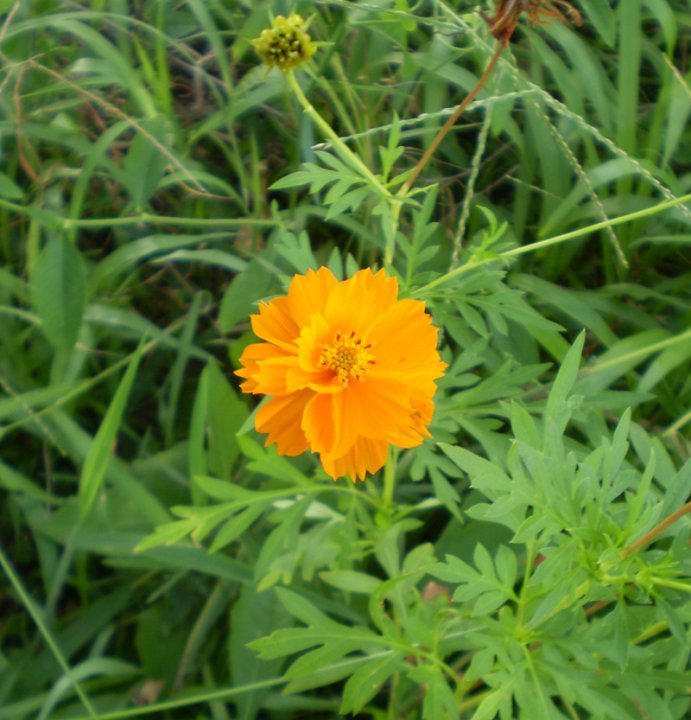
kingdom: Plantae
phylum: Tracheophyta
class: Magnoliopsida
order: Asterales
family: Asteraceae
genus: Cosmos
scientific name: Cosmos sulphureus
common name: Sulphur cosmos
